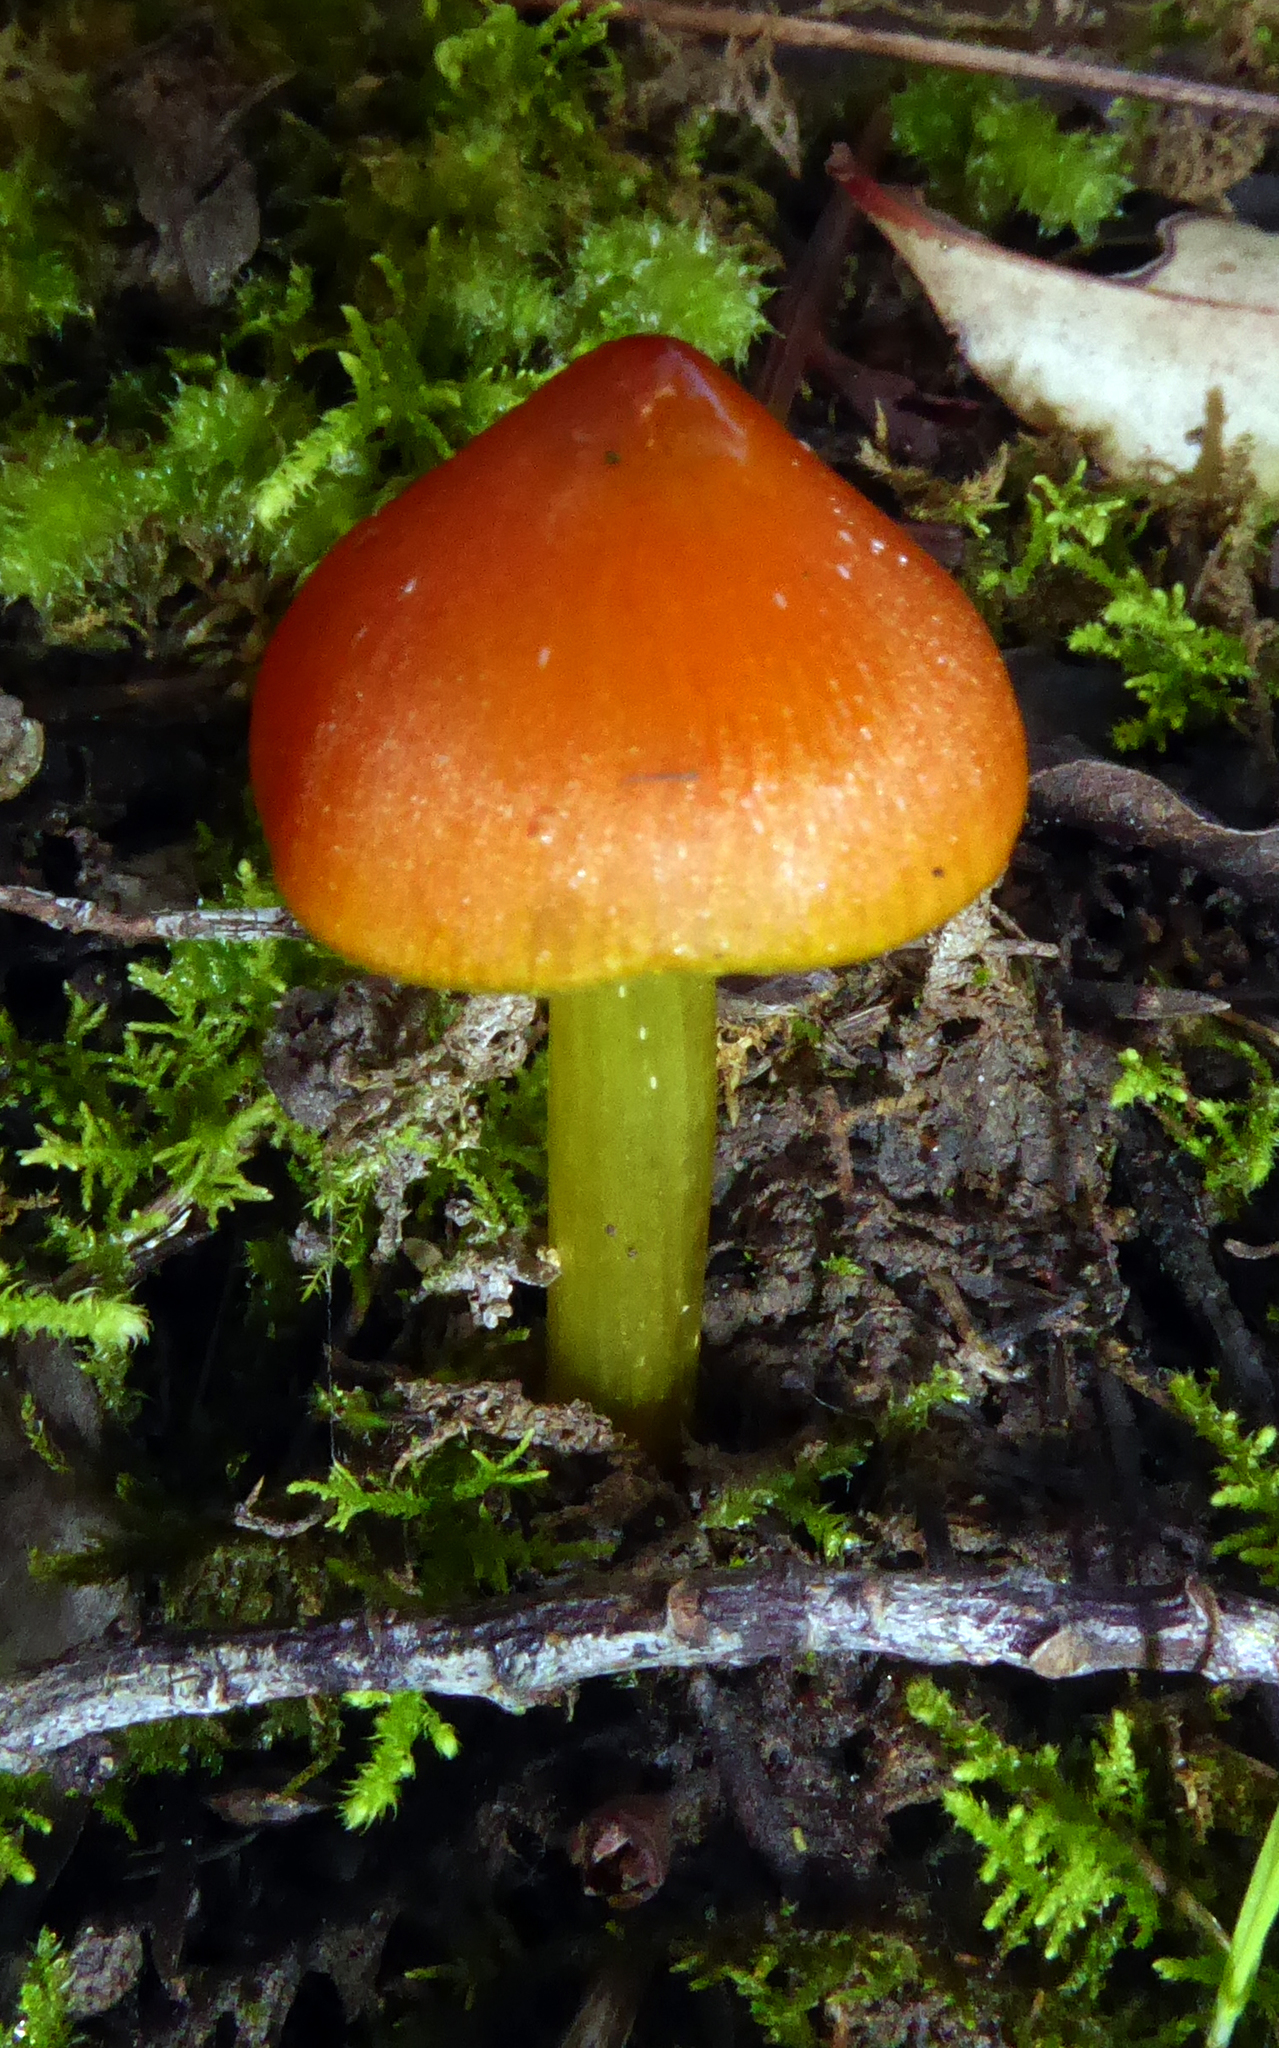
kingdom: Fungi
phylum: Basidiomycota
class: Agaricomycetes
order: Agaricales
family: Hygrophoraceae
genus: Hygrocybe
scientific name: Hygrocybe conica
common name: Blackening wax-cap
